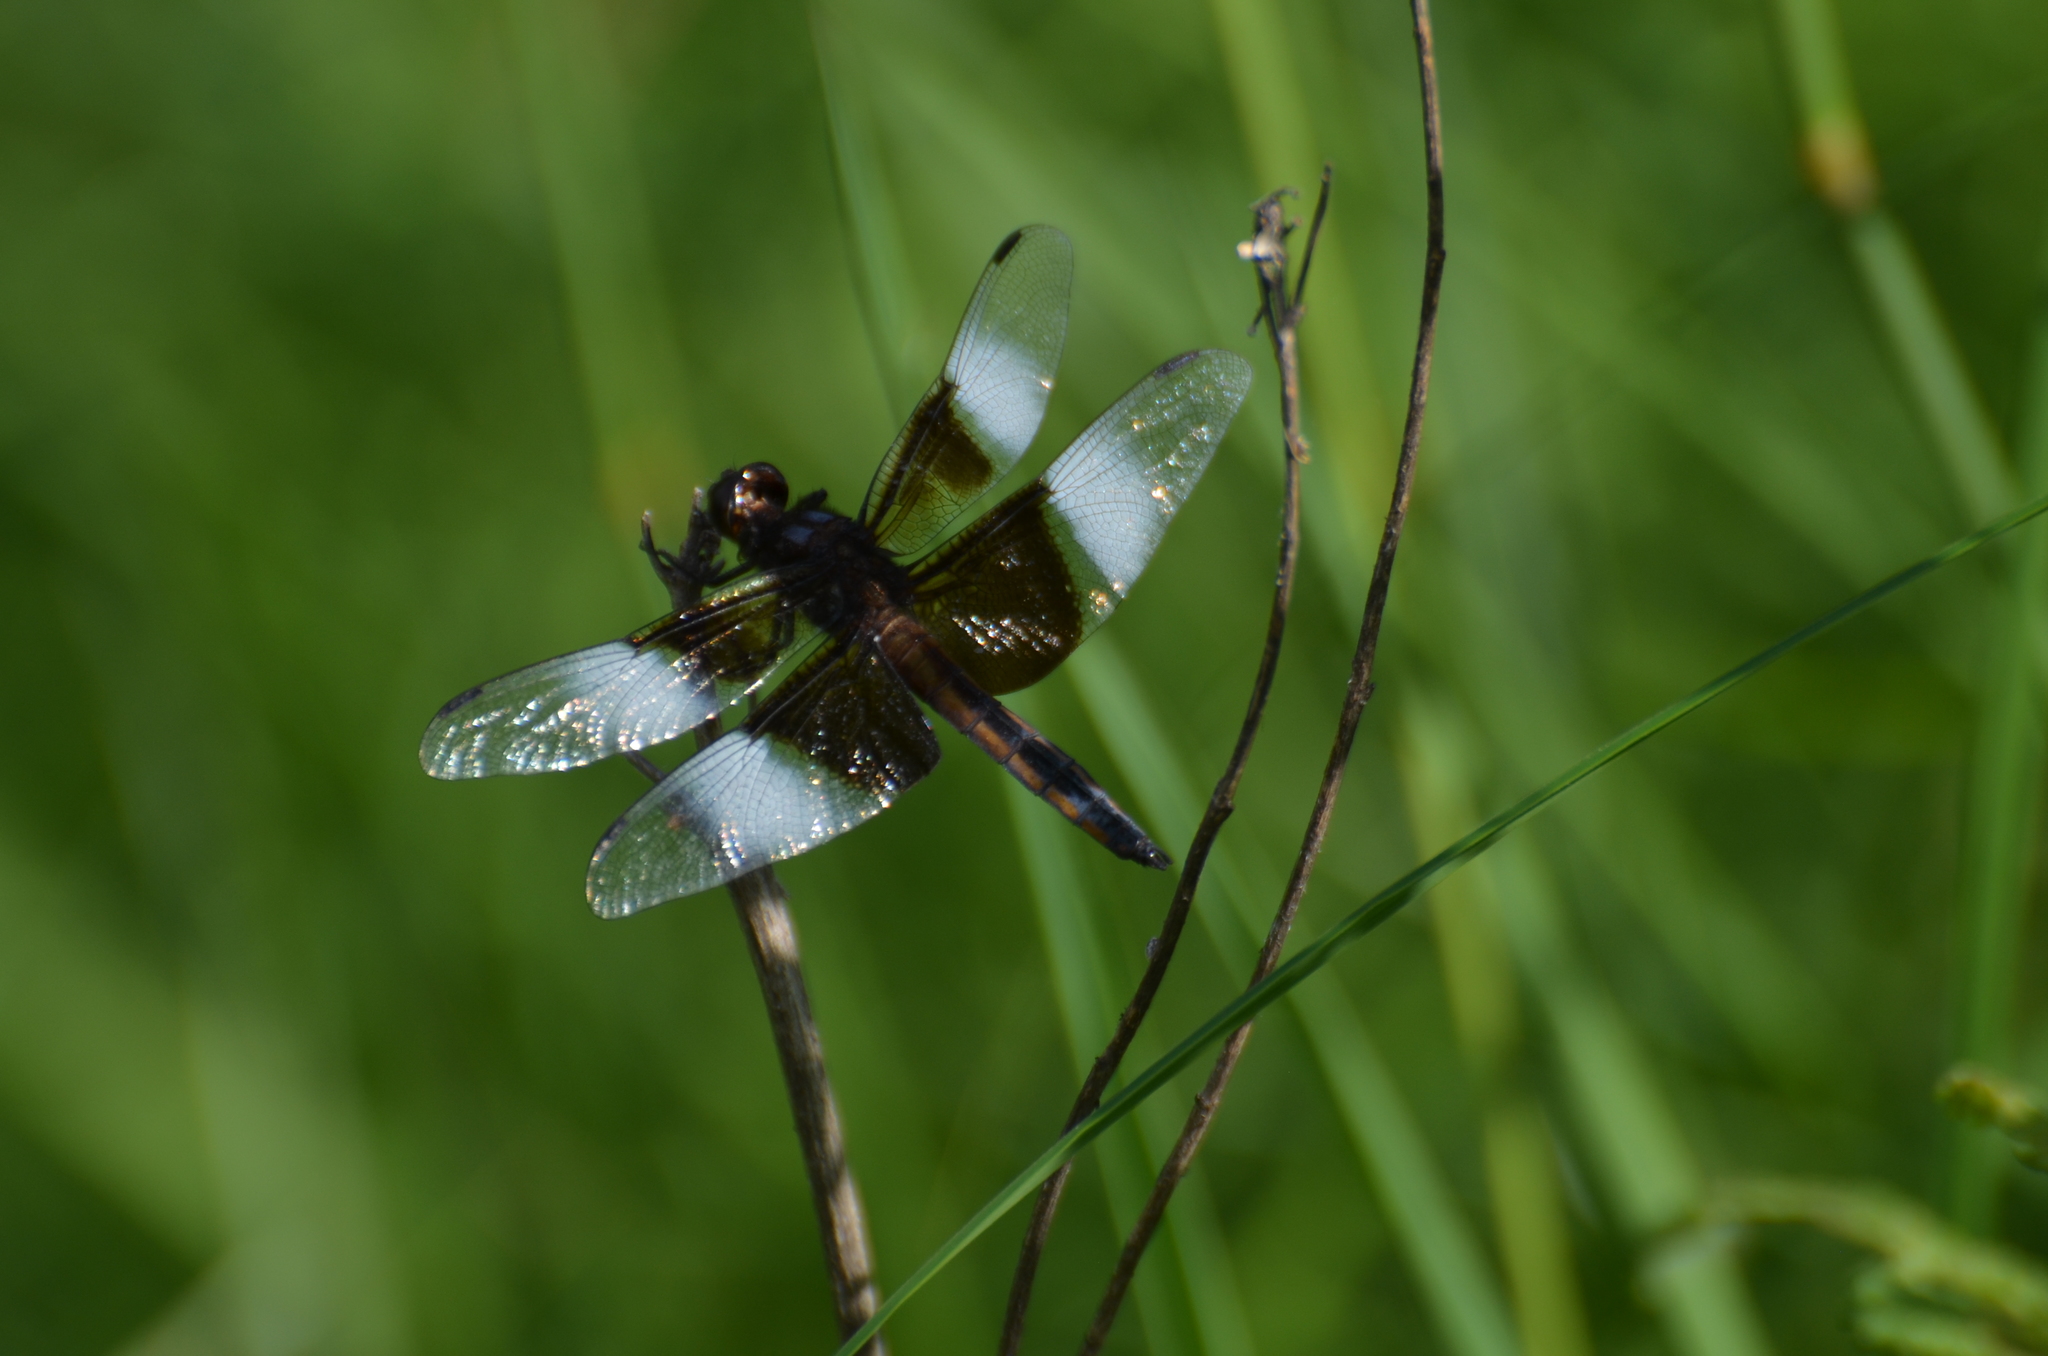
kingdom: Animalia
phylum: Arthropoda
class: Insecta
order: Odonata
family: Libellulidae
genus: Libellula
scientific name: Libellula luctuosa
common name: Widow skimmer
